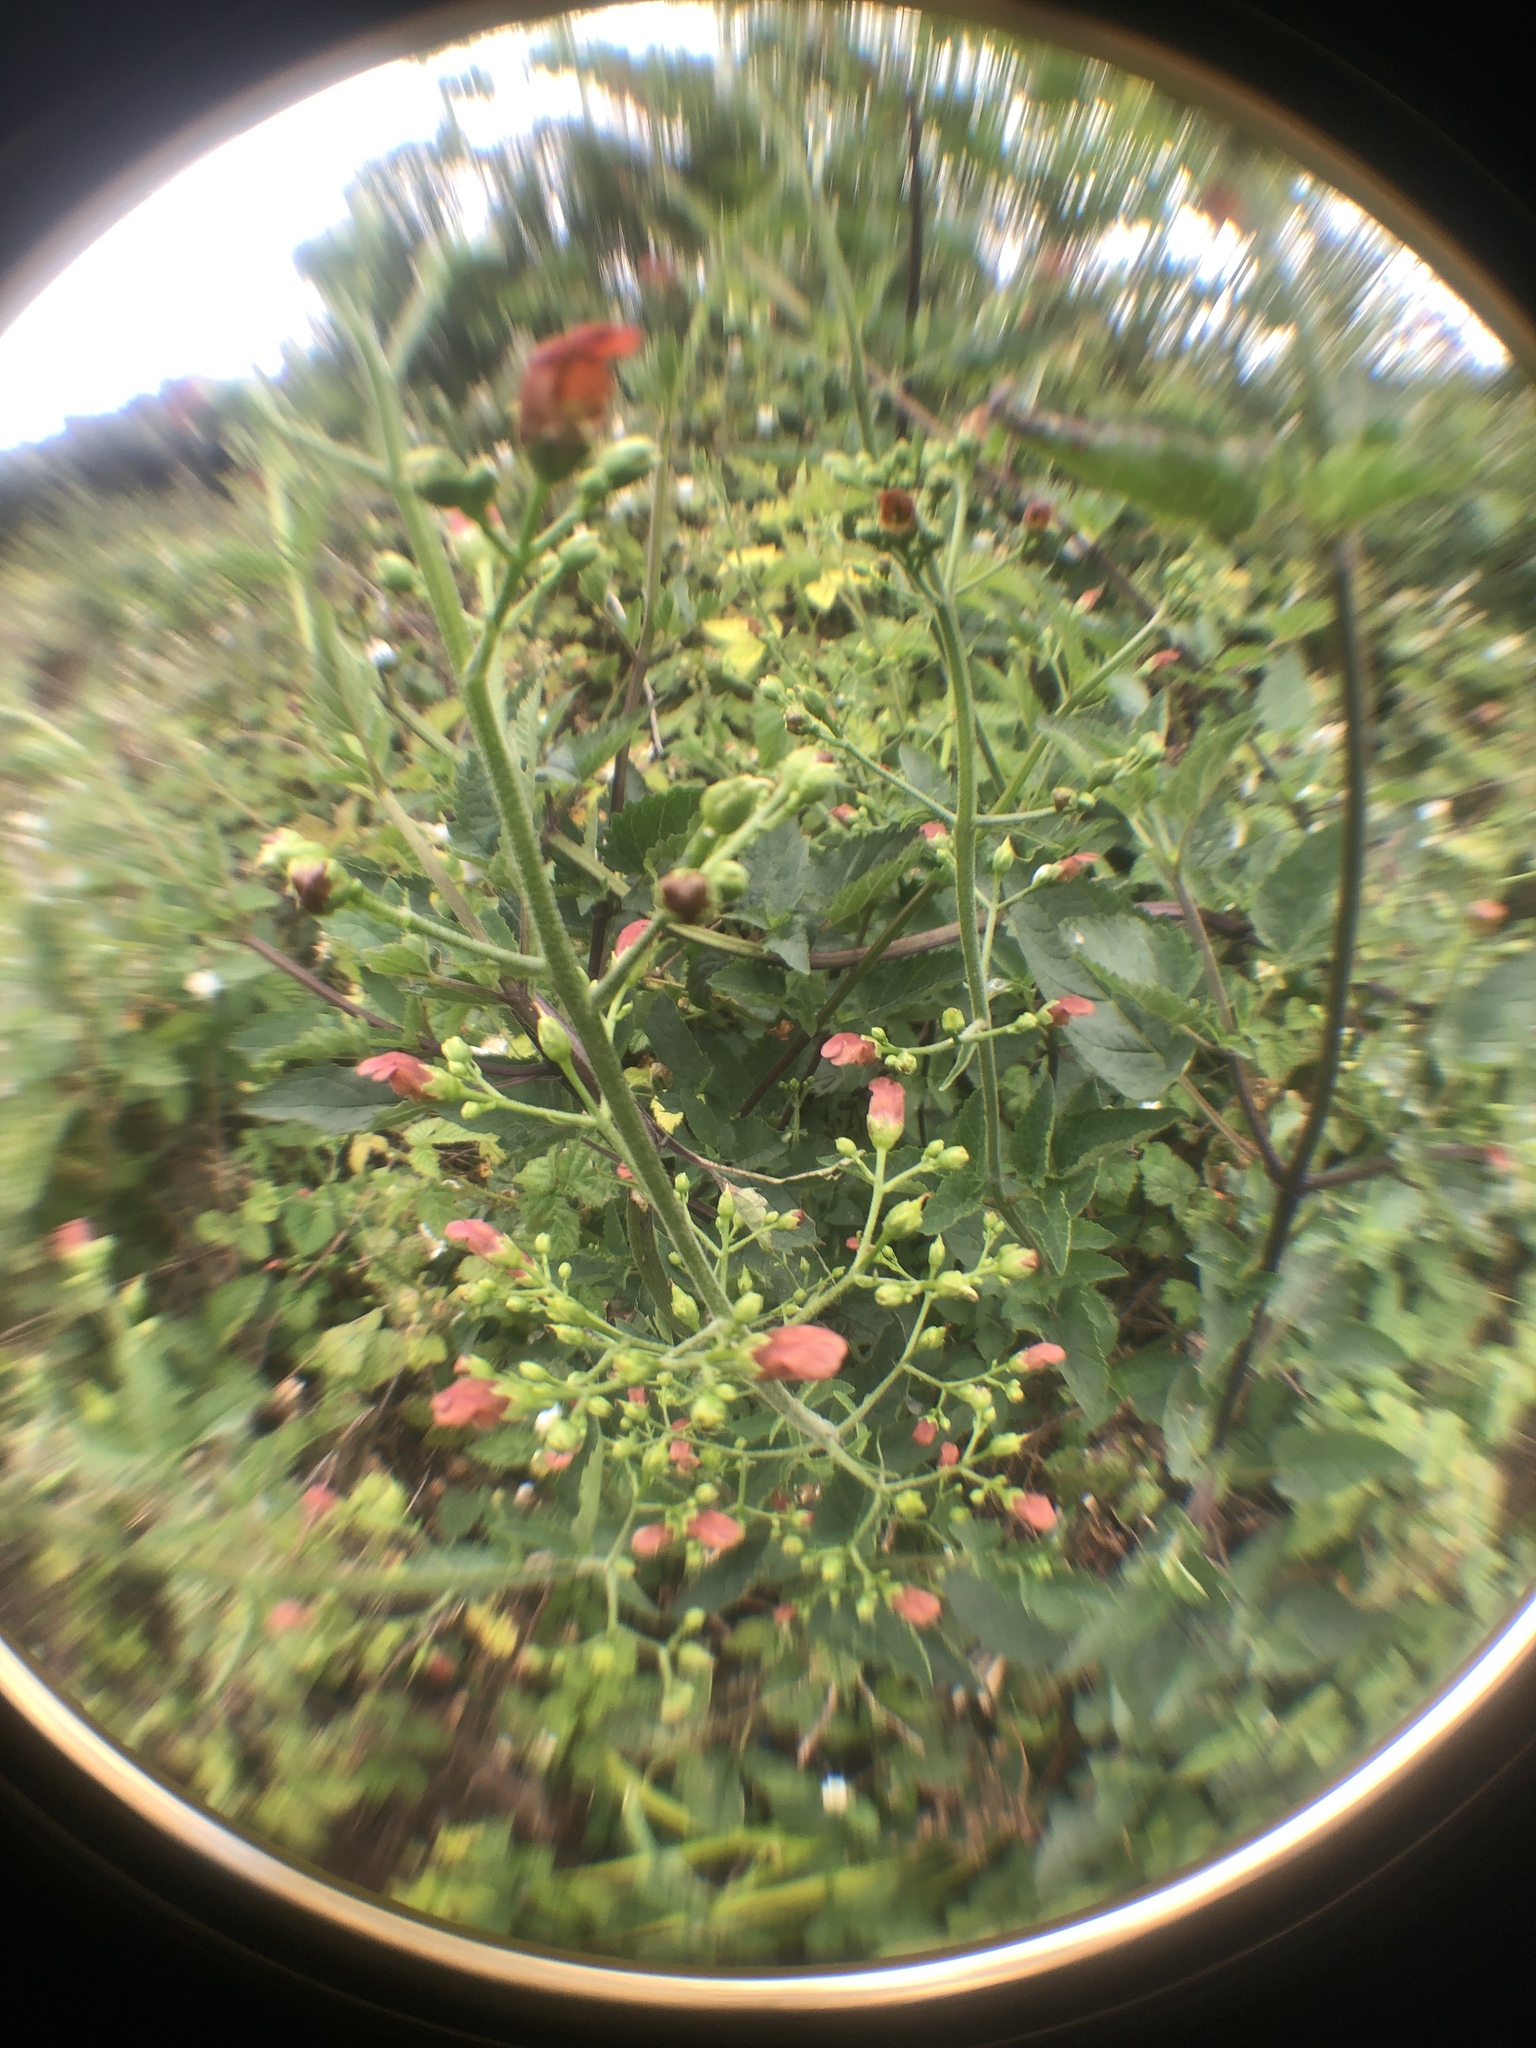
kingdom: Plantae
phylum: Tracheophyta
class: Magnoliopsida
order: Lamiales
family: Scrophulariaceae
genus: Scrophularia
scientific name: Scrophularia californica
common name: California figwort
